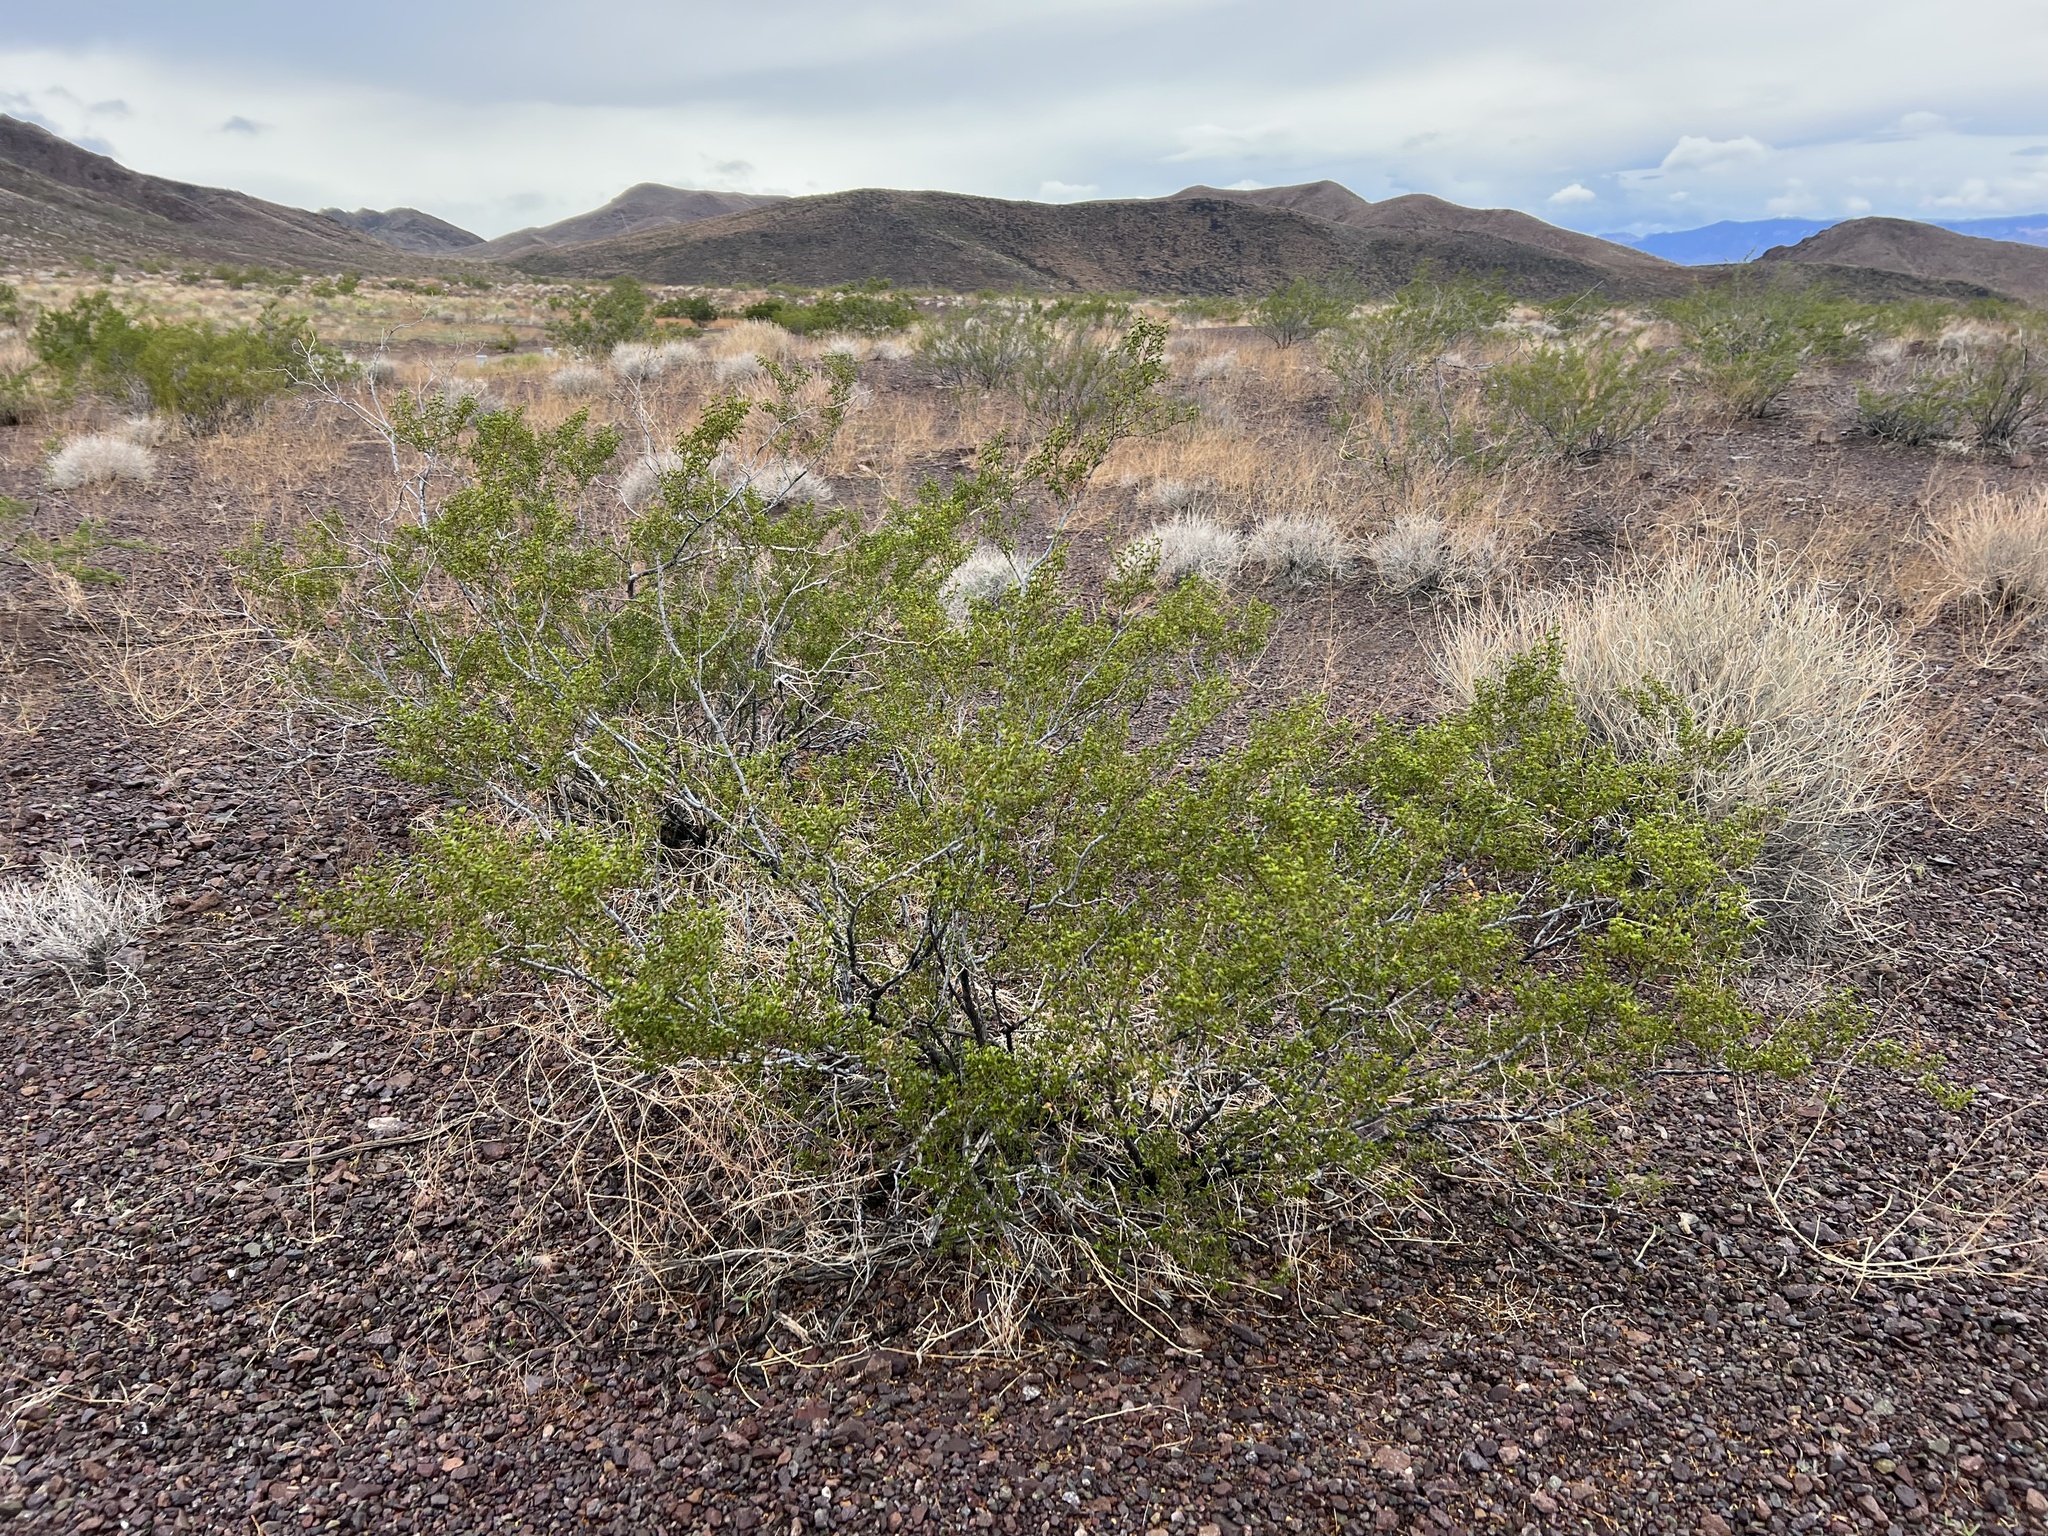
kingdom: Plantae
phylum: Tracheophyta
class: Magnoliopsida
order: Zygophyllales
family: Zygophyllaceae
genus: Larrea
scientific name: Larrea tridentata
